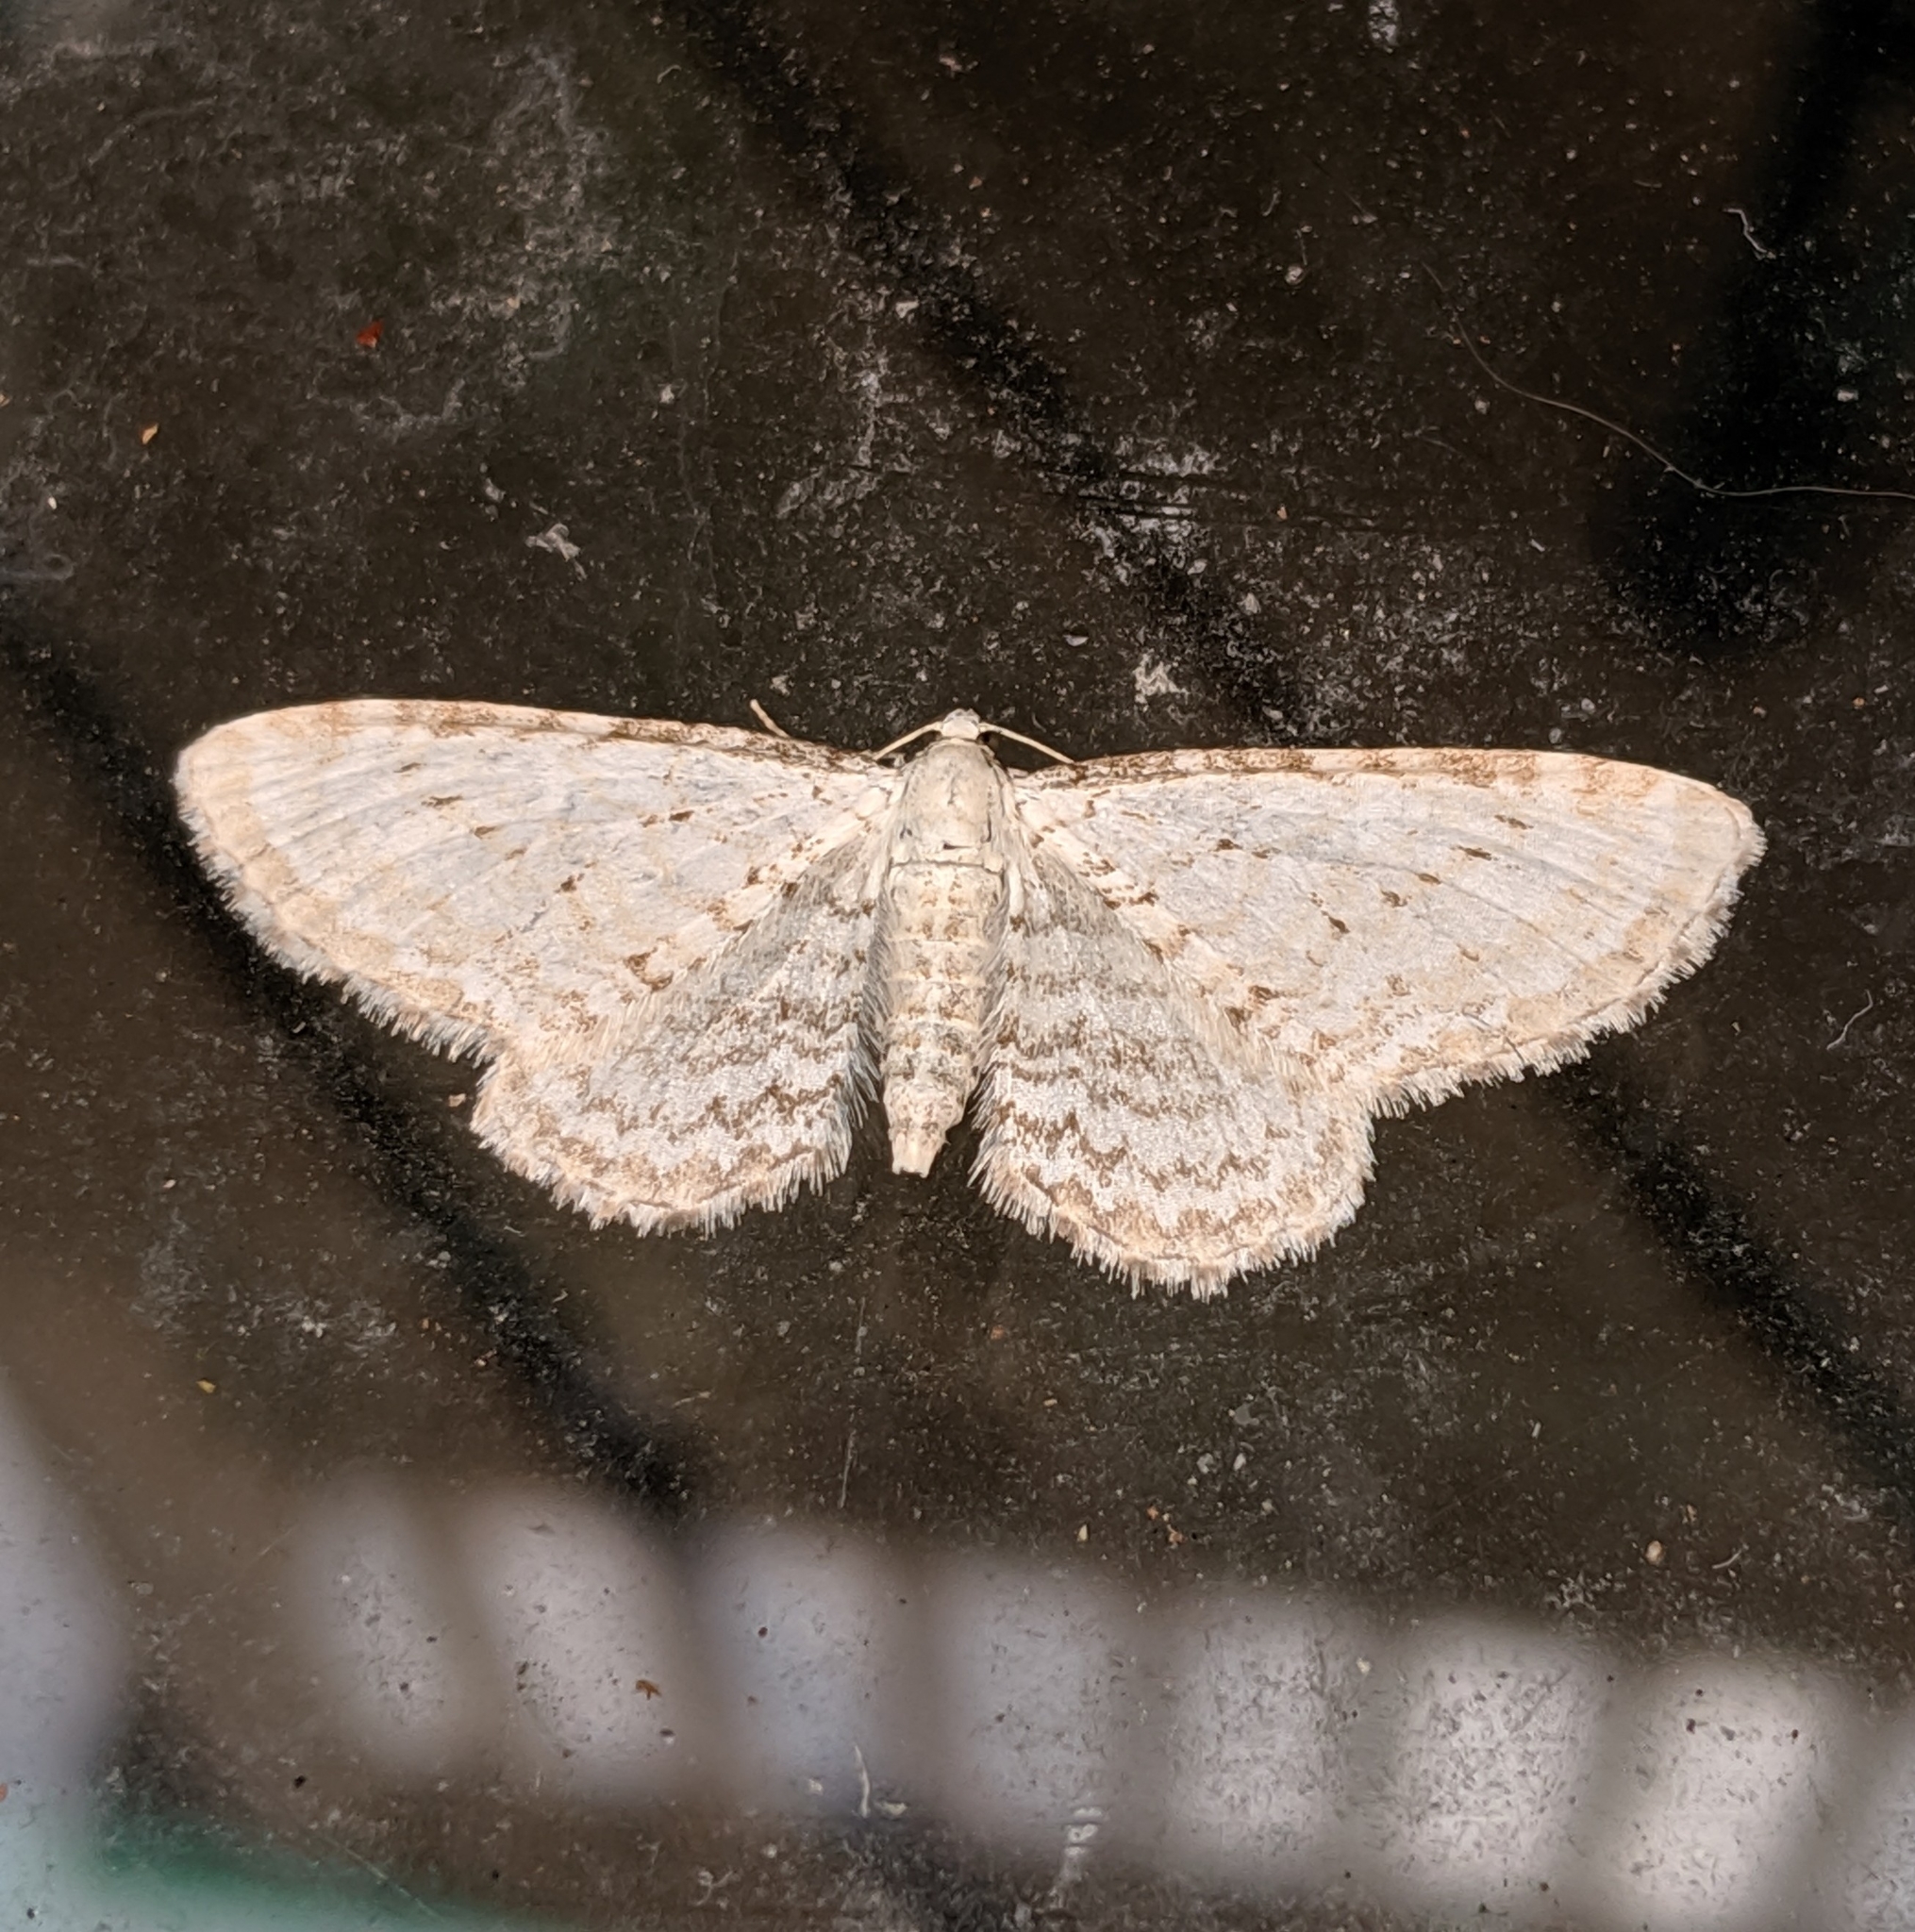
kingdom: Animalia
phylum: Arthropoda
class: Insecta
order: Lepidoptera
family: Geometridae
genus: Eupithecia
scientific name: Eupithecia cretaceata
